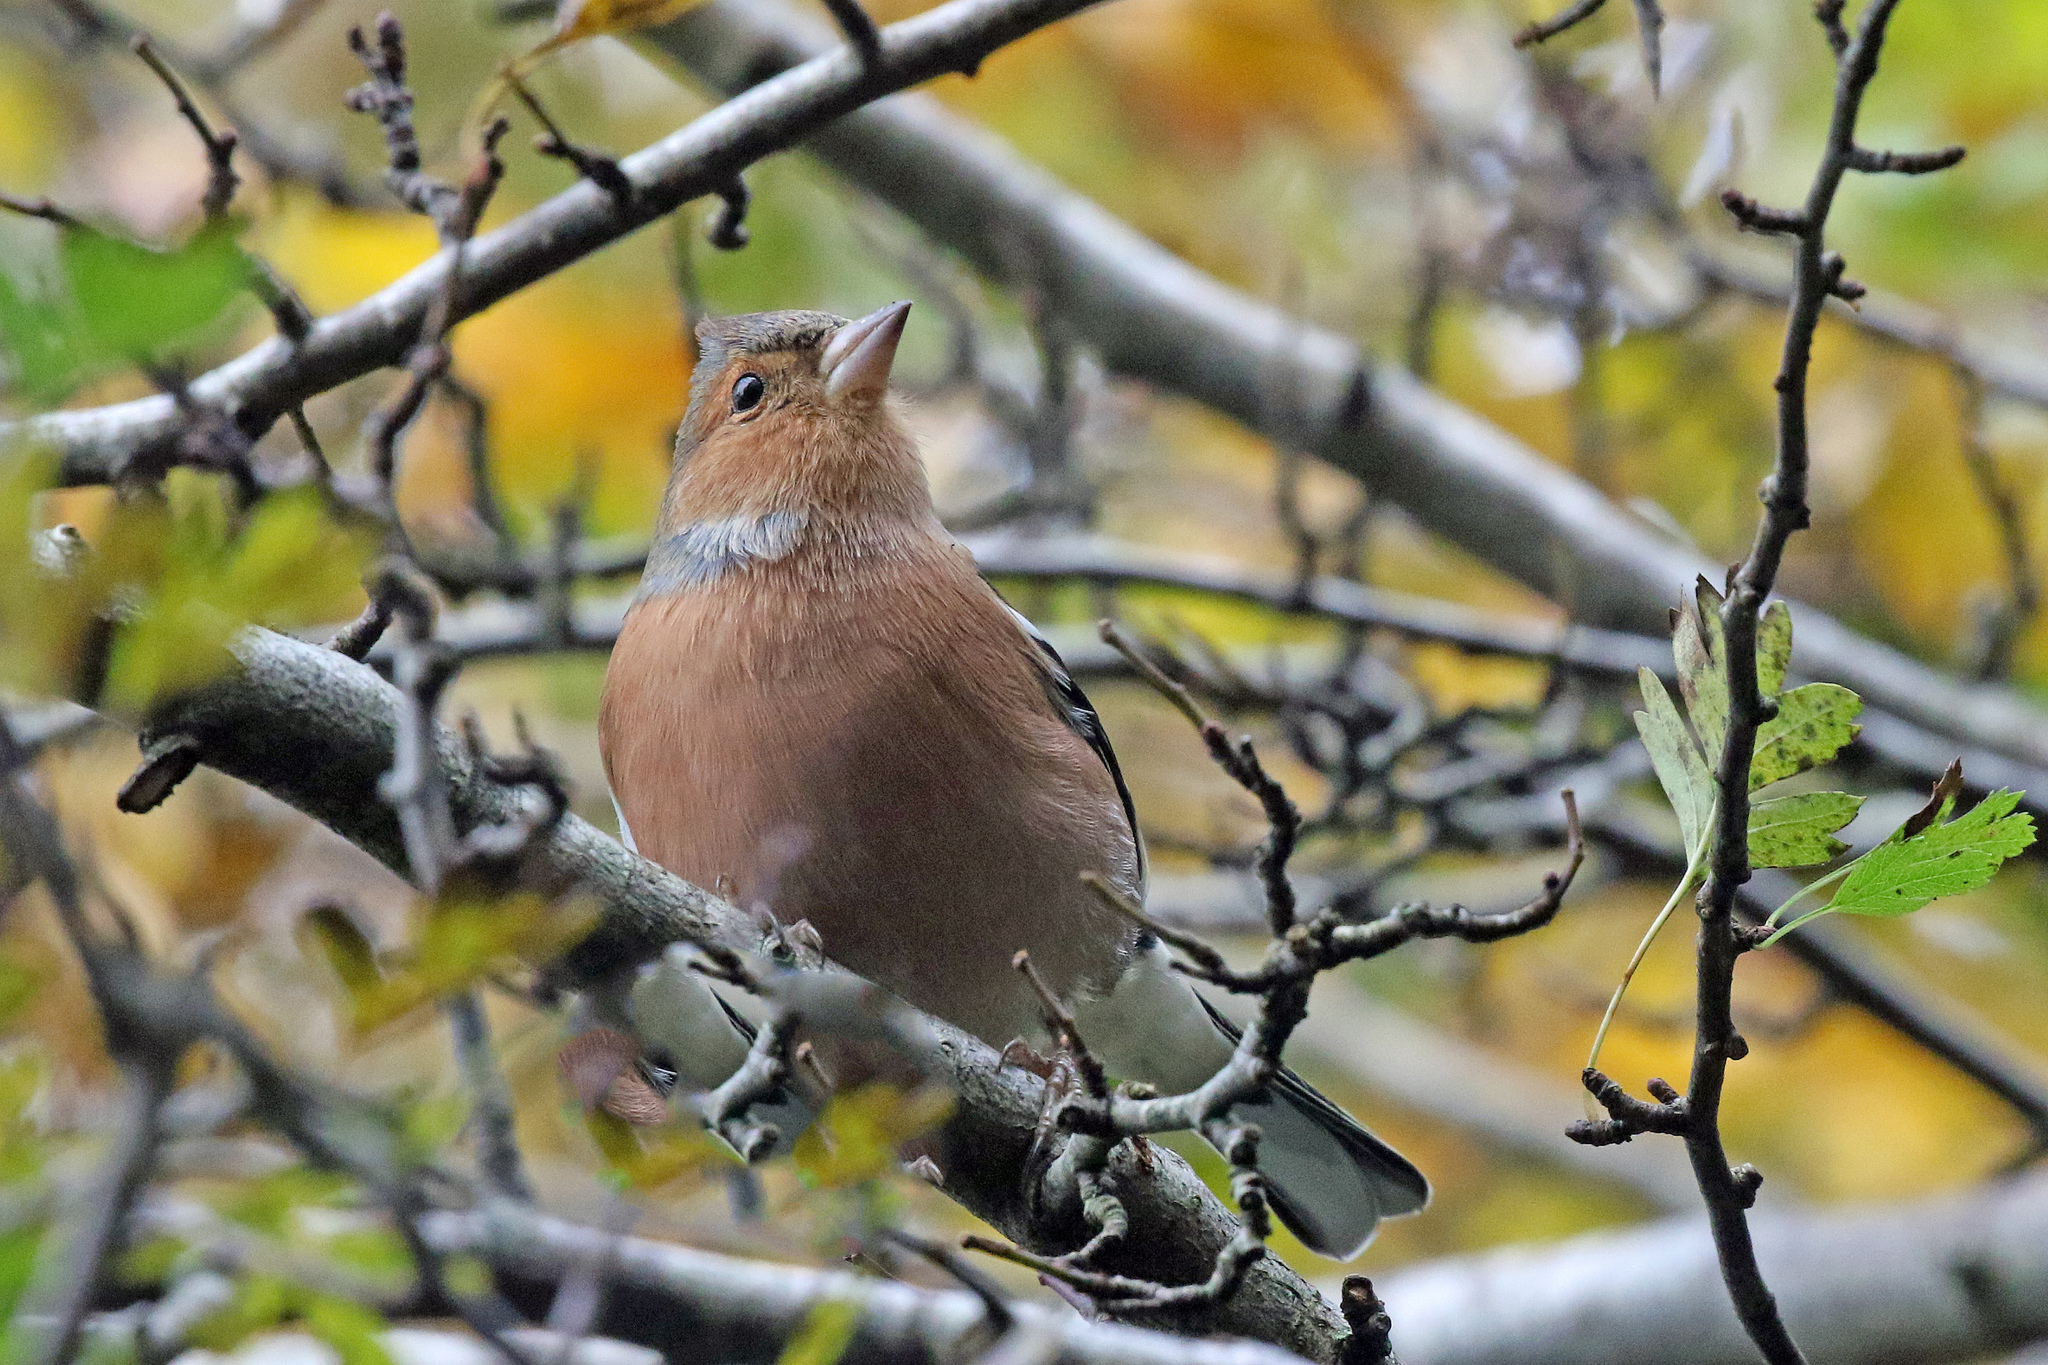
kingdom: Animalia
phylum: Chordata
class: Aves
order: Passeriformes
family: Fringillidae
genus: Fringilla
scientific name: Fringilla coelebs
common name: Common chaffinch
